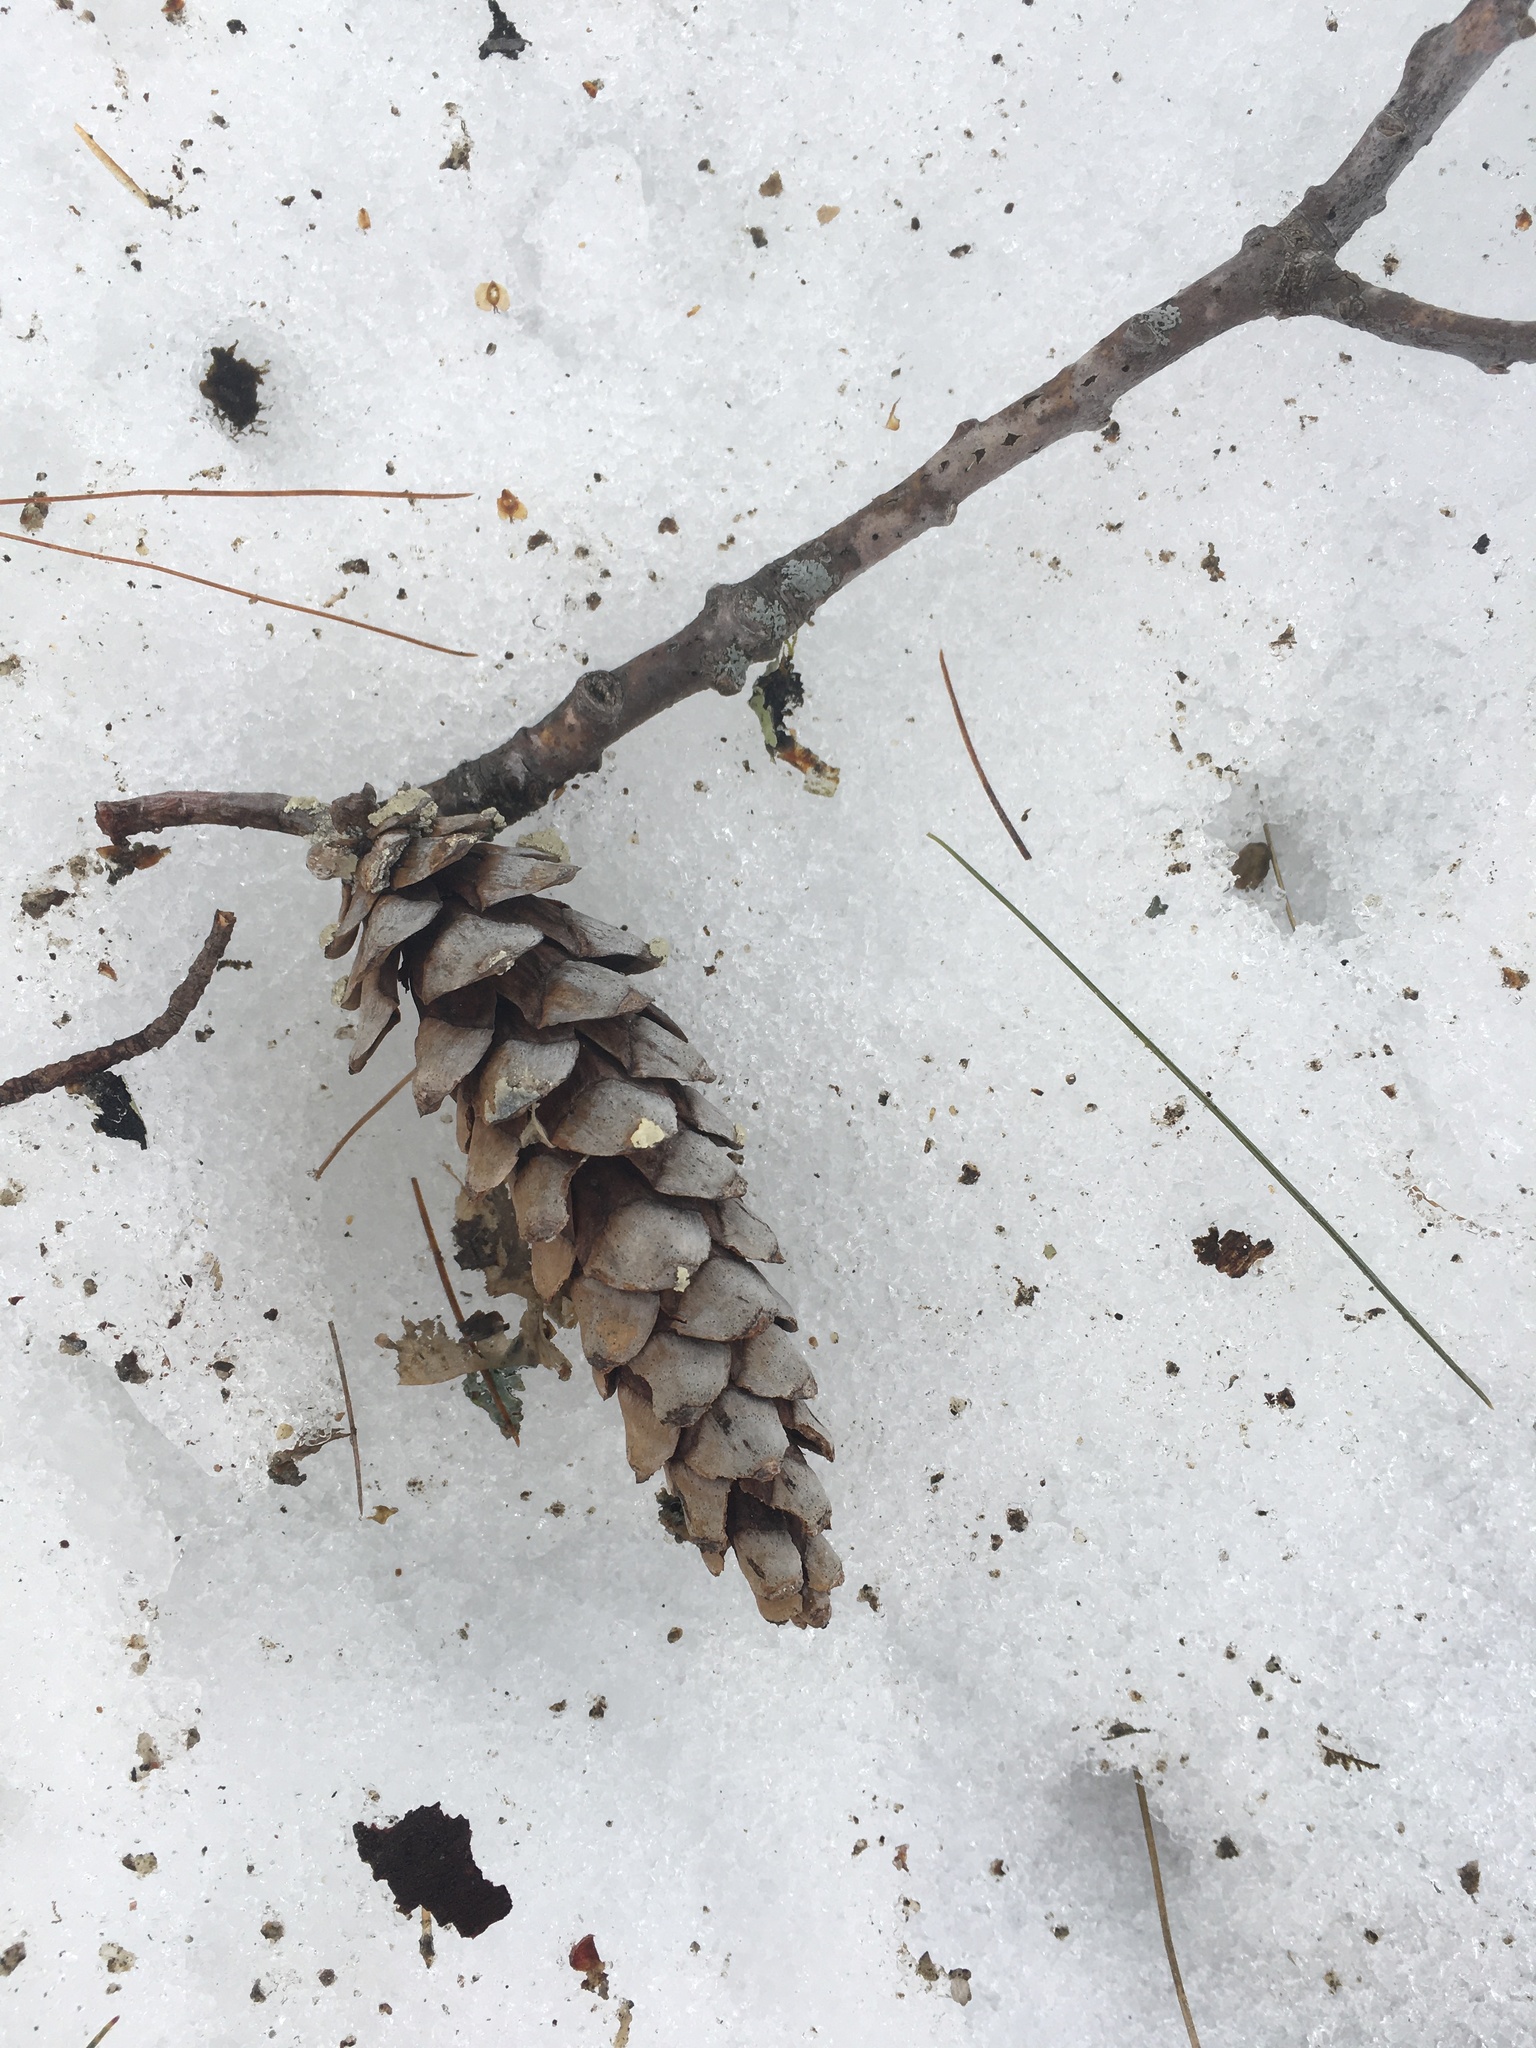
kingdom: Plantae
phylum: Tracheophyta
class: Pinopsida
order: Pinales
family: Pinaceae
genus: Pinus
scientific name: Pinus strobus
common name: Weymouth pine
